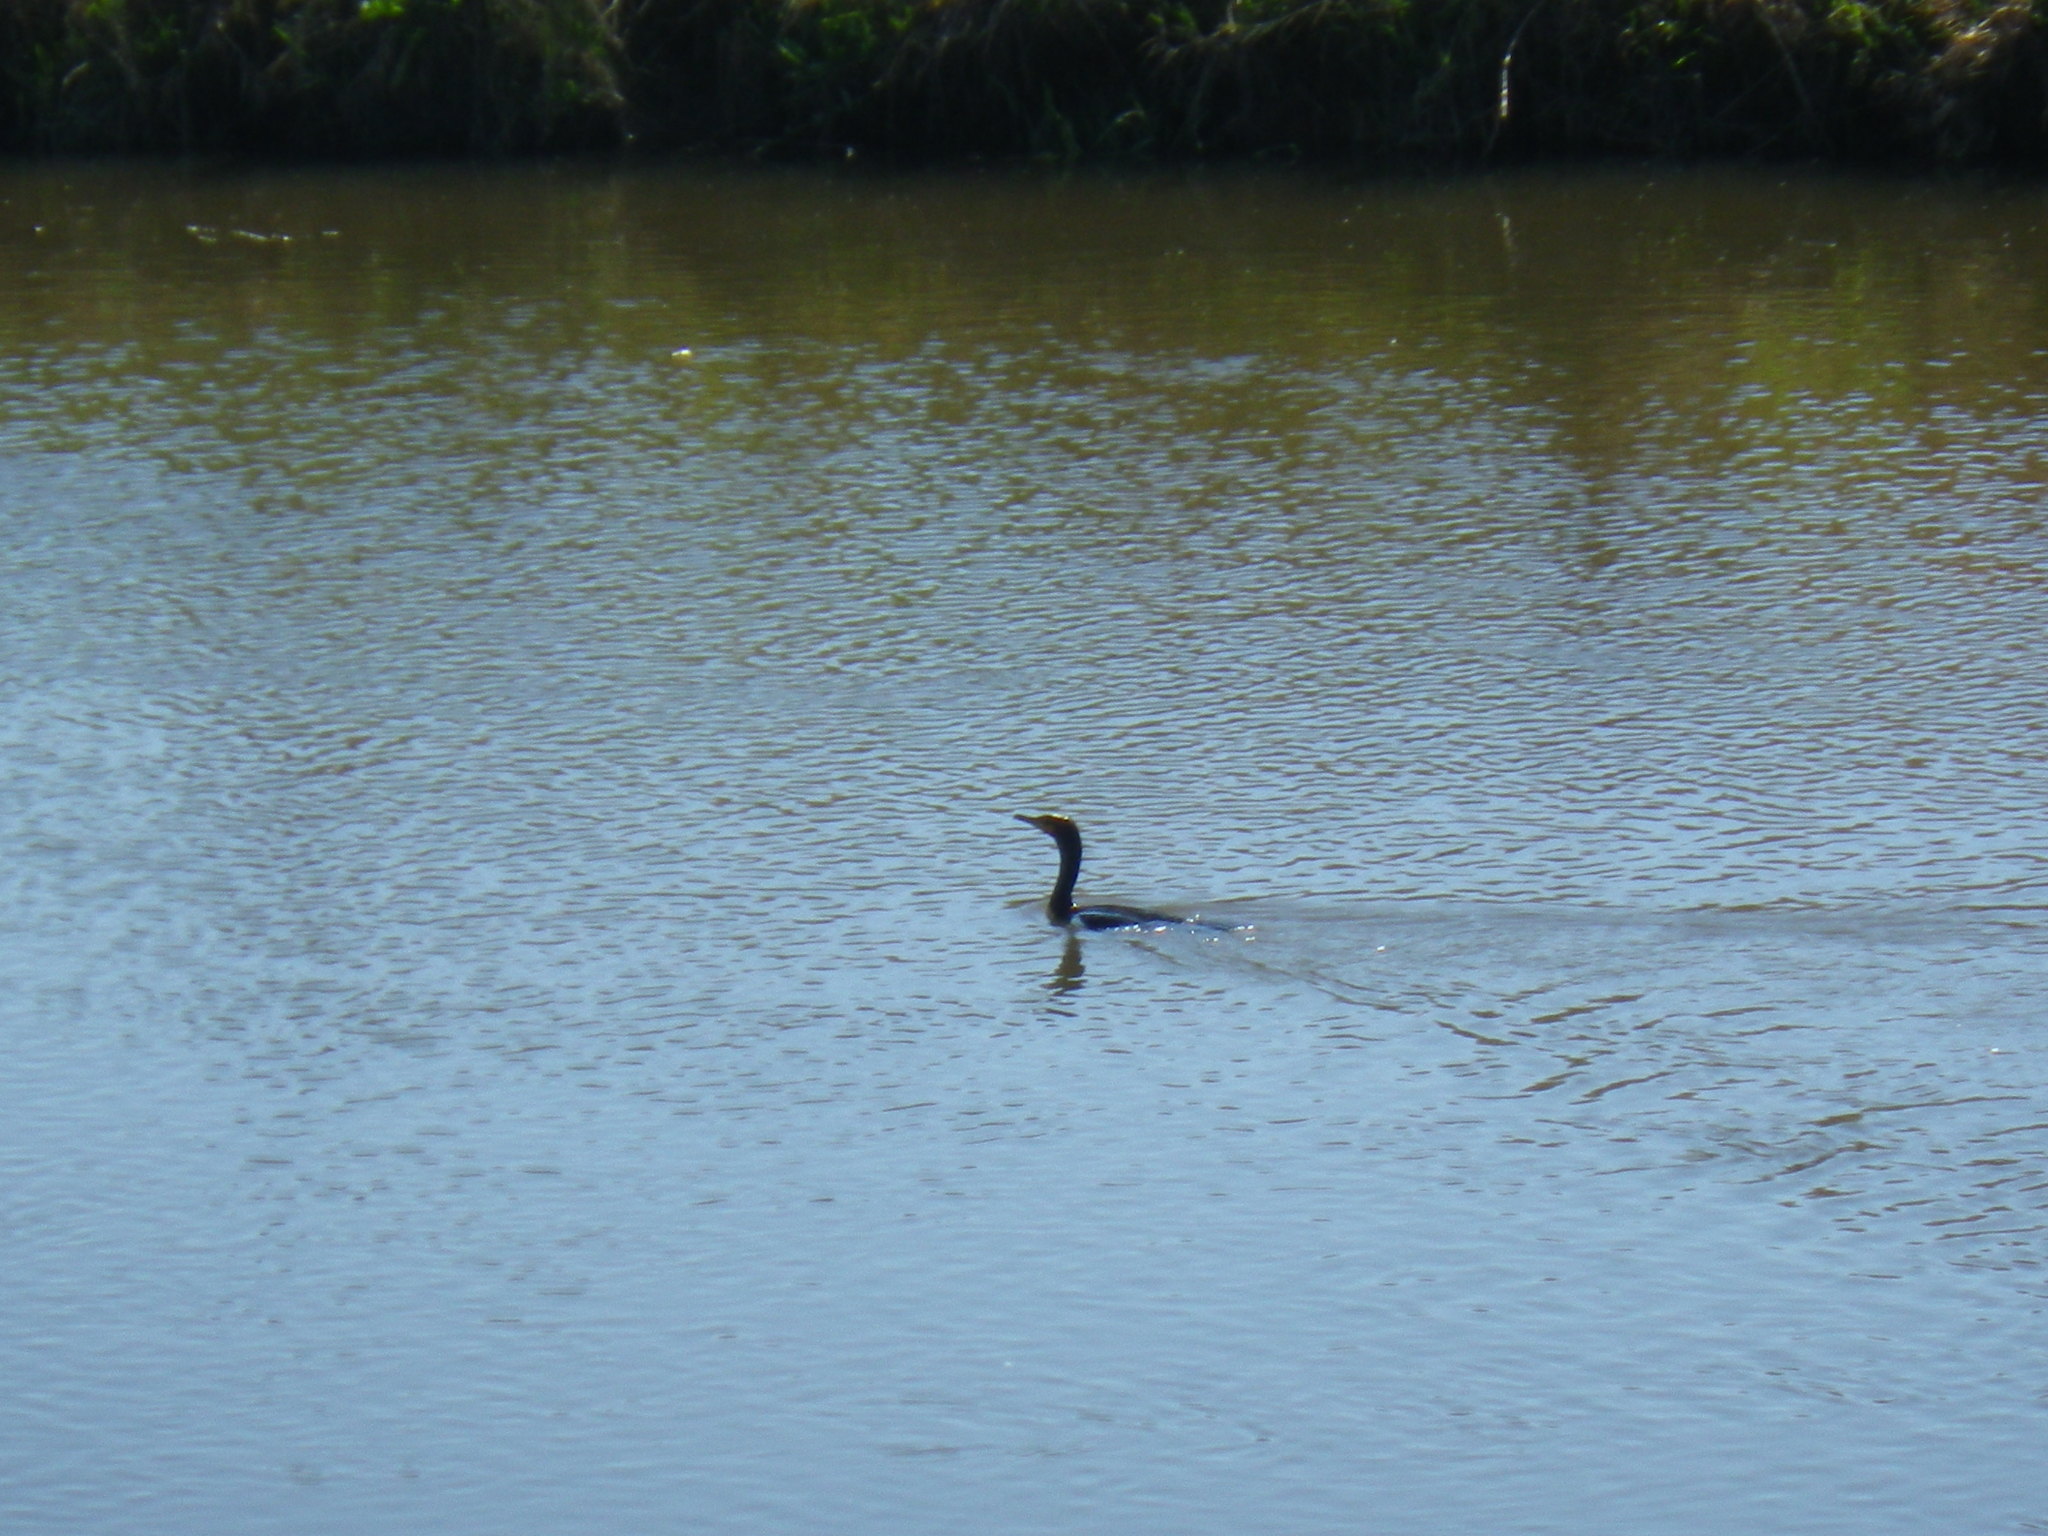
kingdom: Animalia
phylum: Chordata
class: Aves
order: Suliformes
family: Phalacrocoracidae
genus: Phalacrocorax
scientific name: Phalacrocorax auritus
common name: Double-crested cormorant
